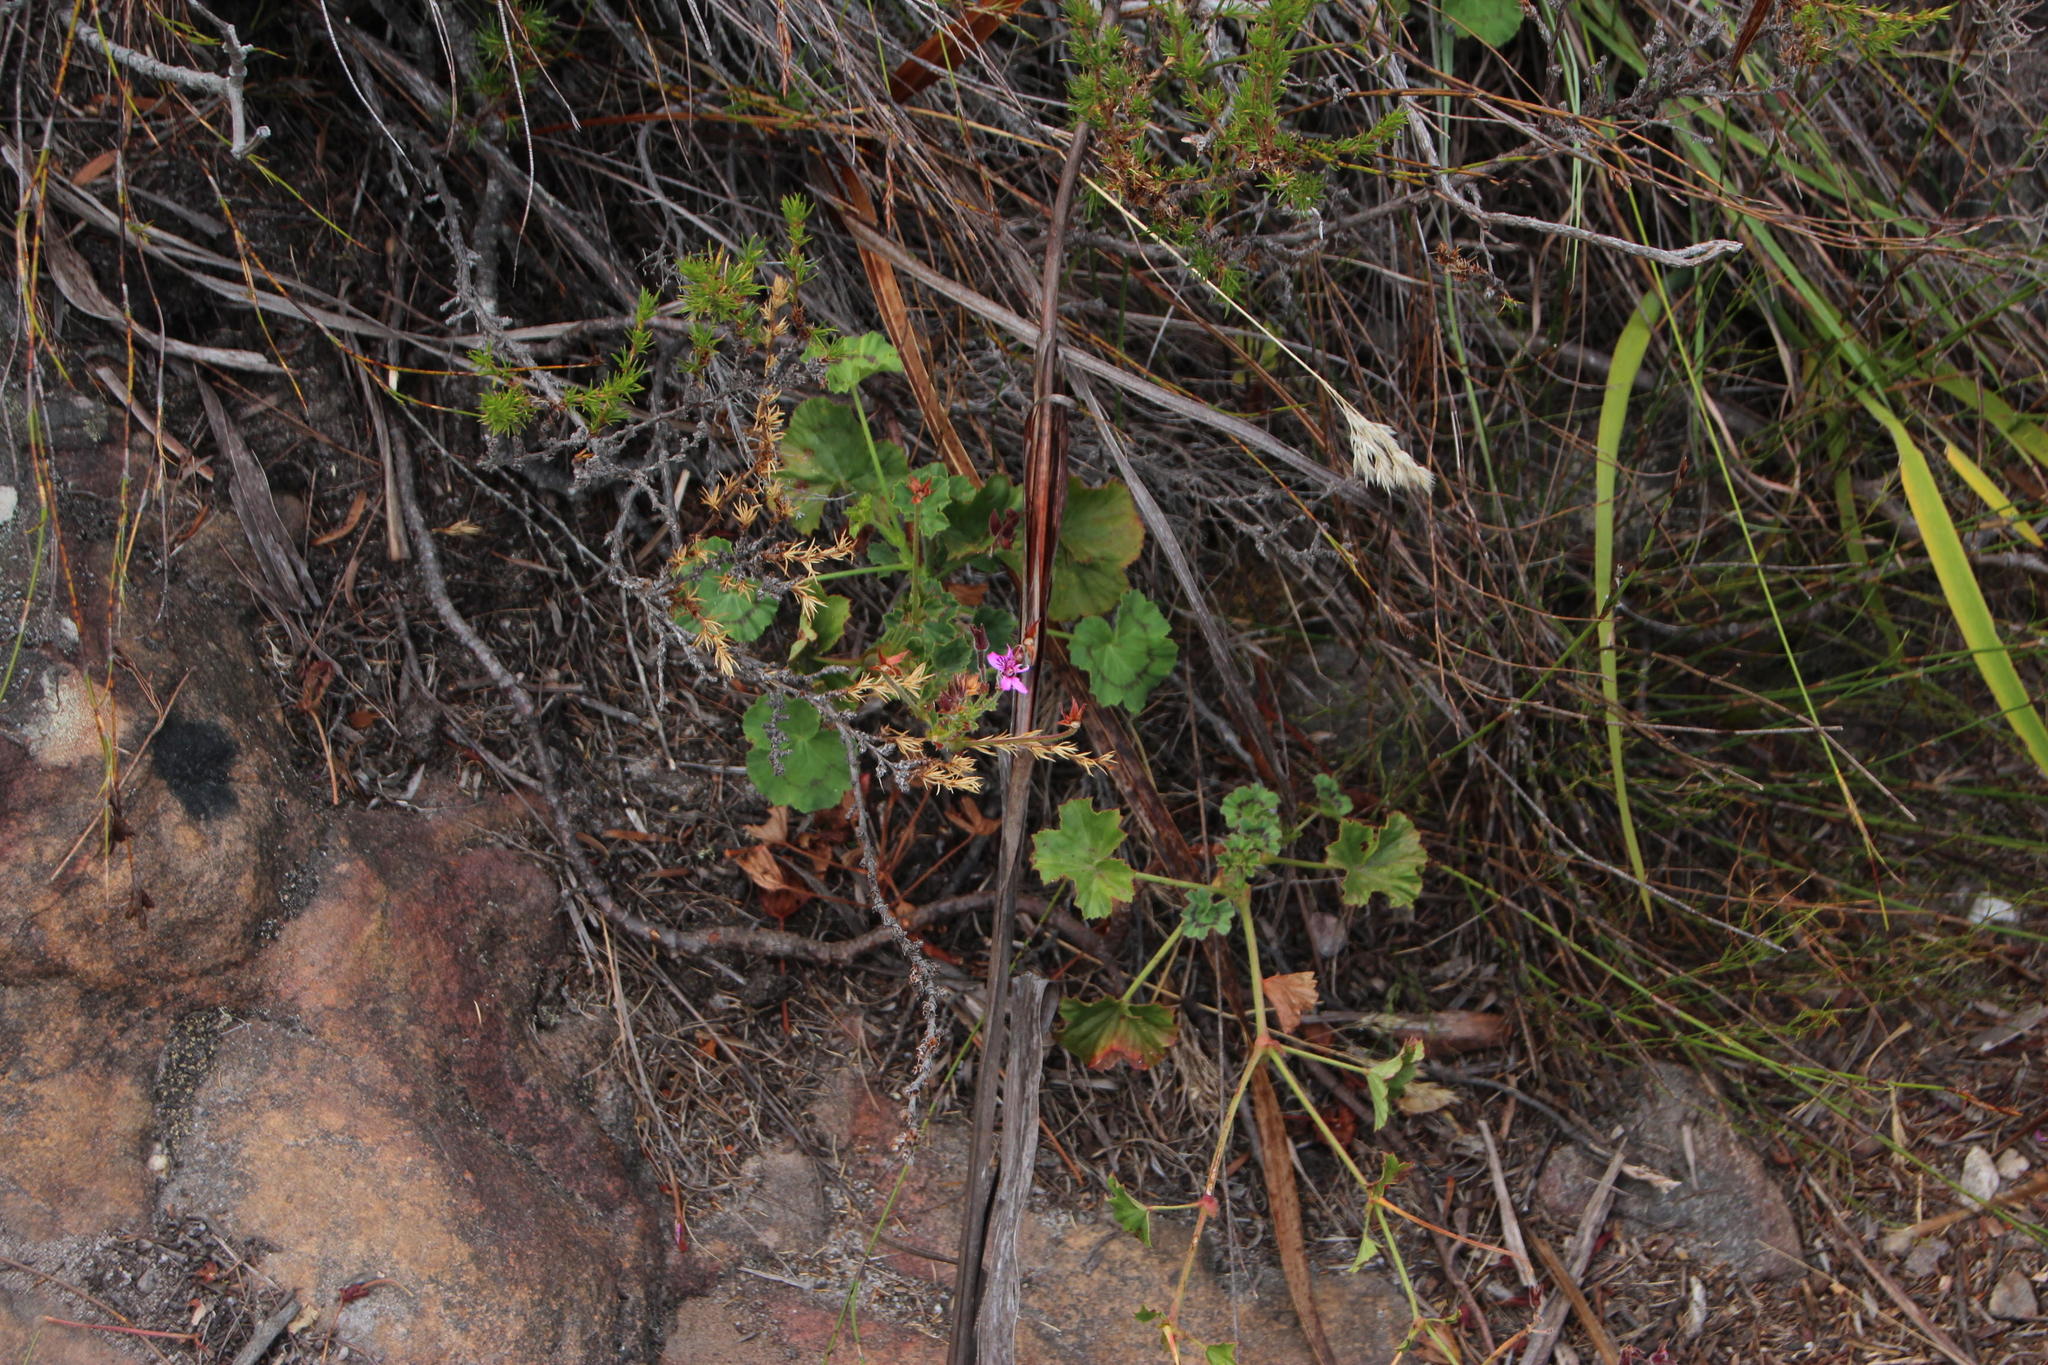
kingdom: Plantae
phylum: Tracheophyta
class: Magnoliopsida
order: Geraniales
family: Geraniaceae
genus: Pelargonium
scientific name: Pelargonium elongatum
